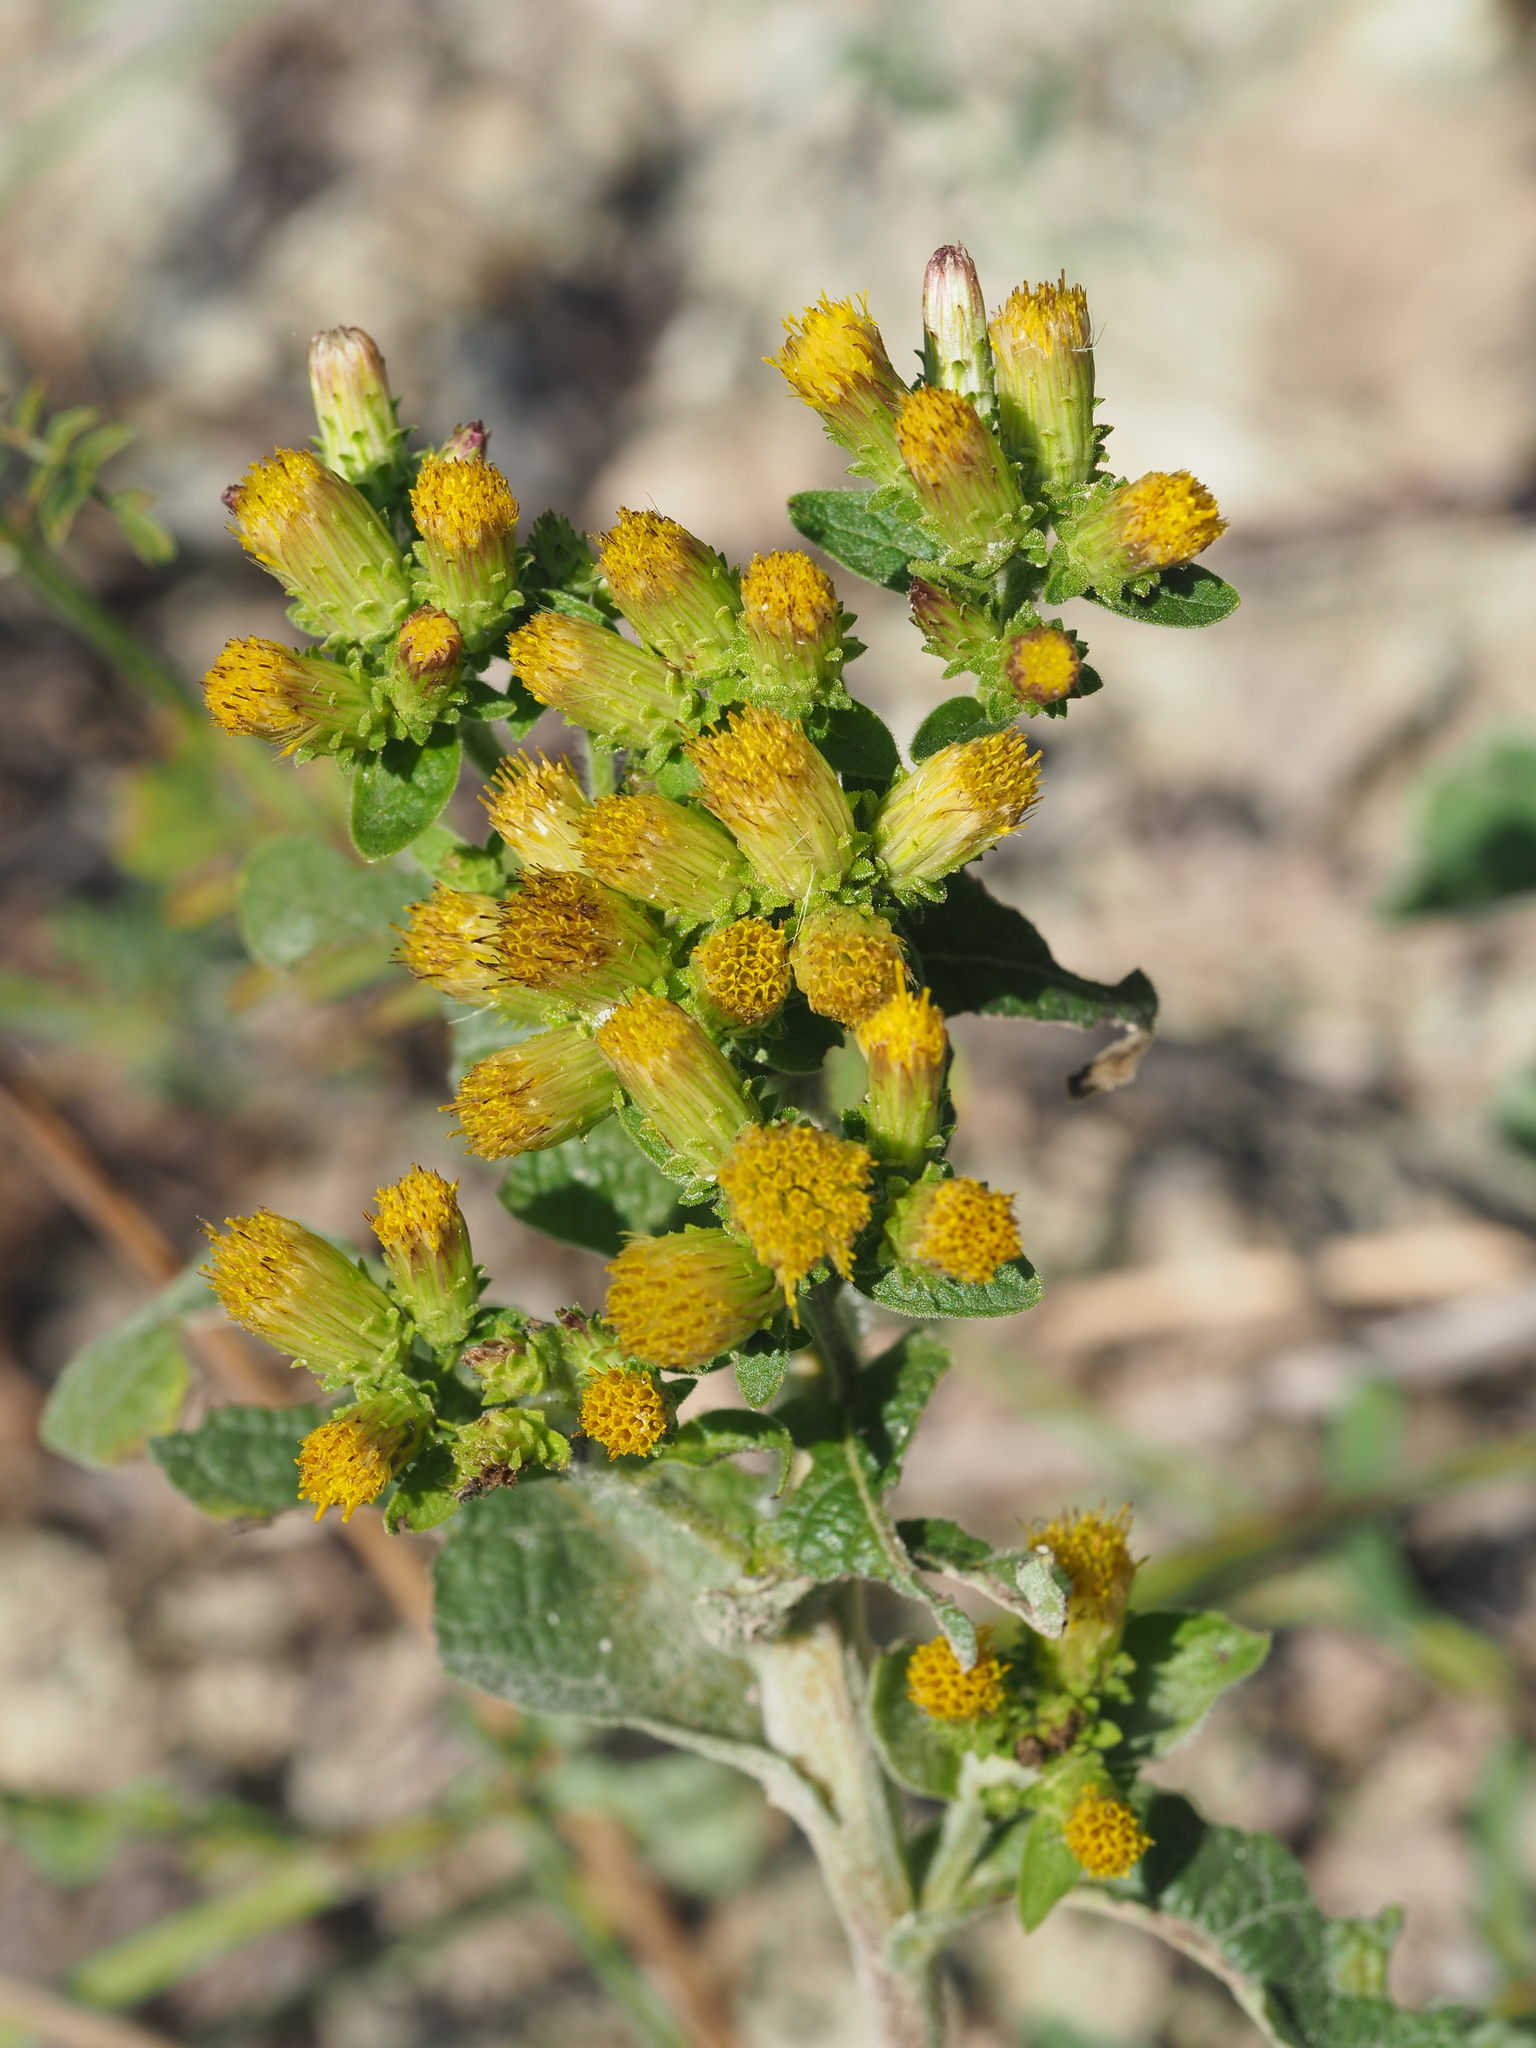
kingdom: Plantae
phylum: Tracheophyta
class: Magnoliopsida
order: Asterales
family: Asteraceae
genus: Pentanema
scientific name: Pentanema squarrosum
